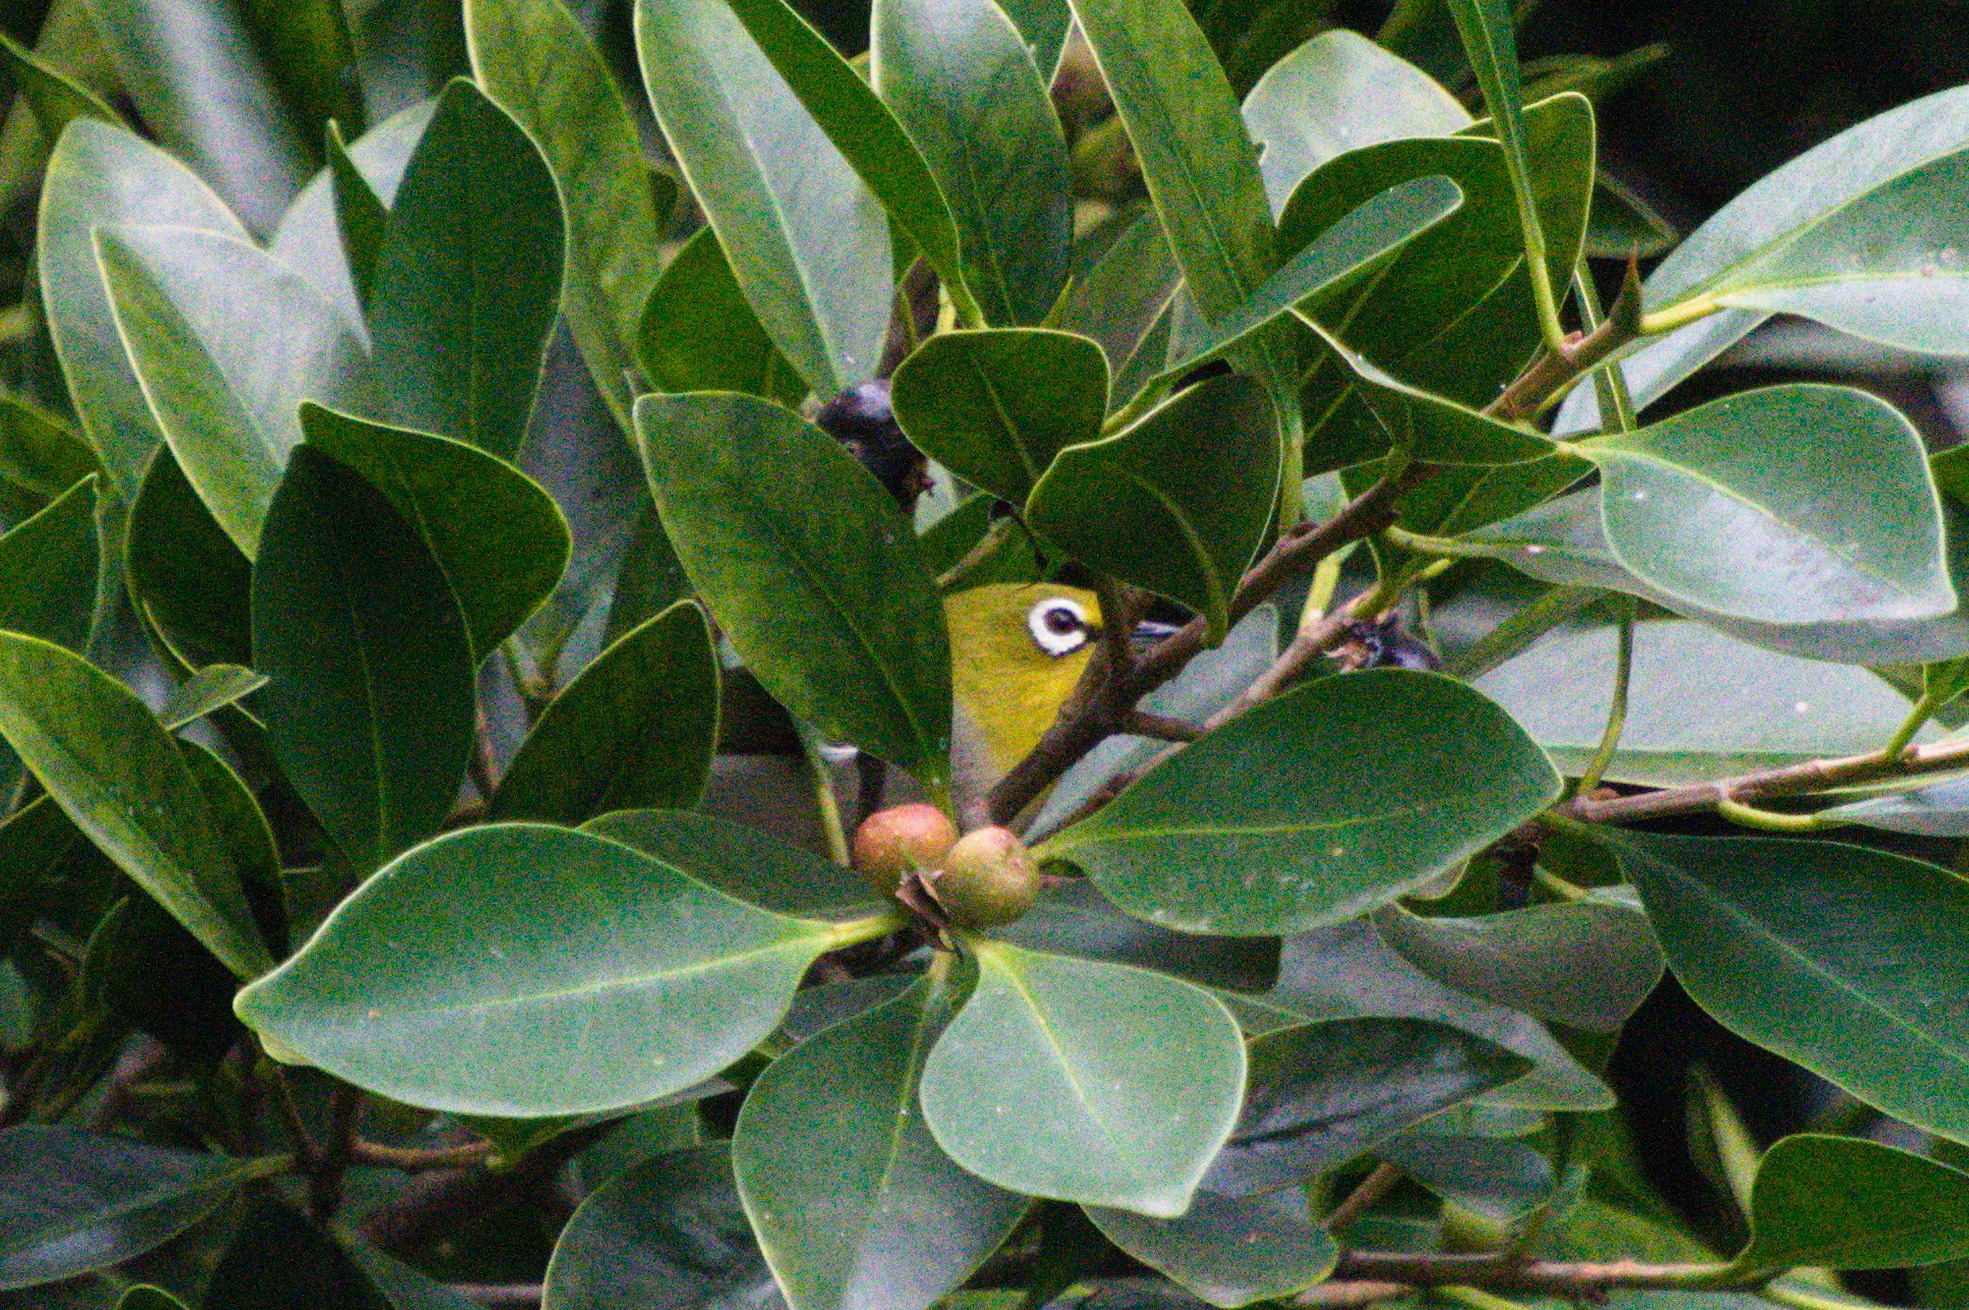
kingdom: Animalia
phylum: Chordata
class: Aves
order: Passeriformes
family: Zosteropidae
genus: Zosterops
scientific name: Zosterops simplex
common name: Swinhoe's white-eye
